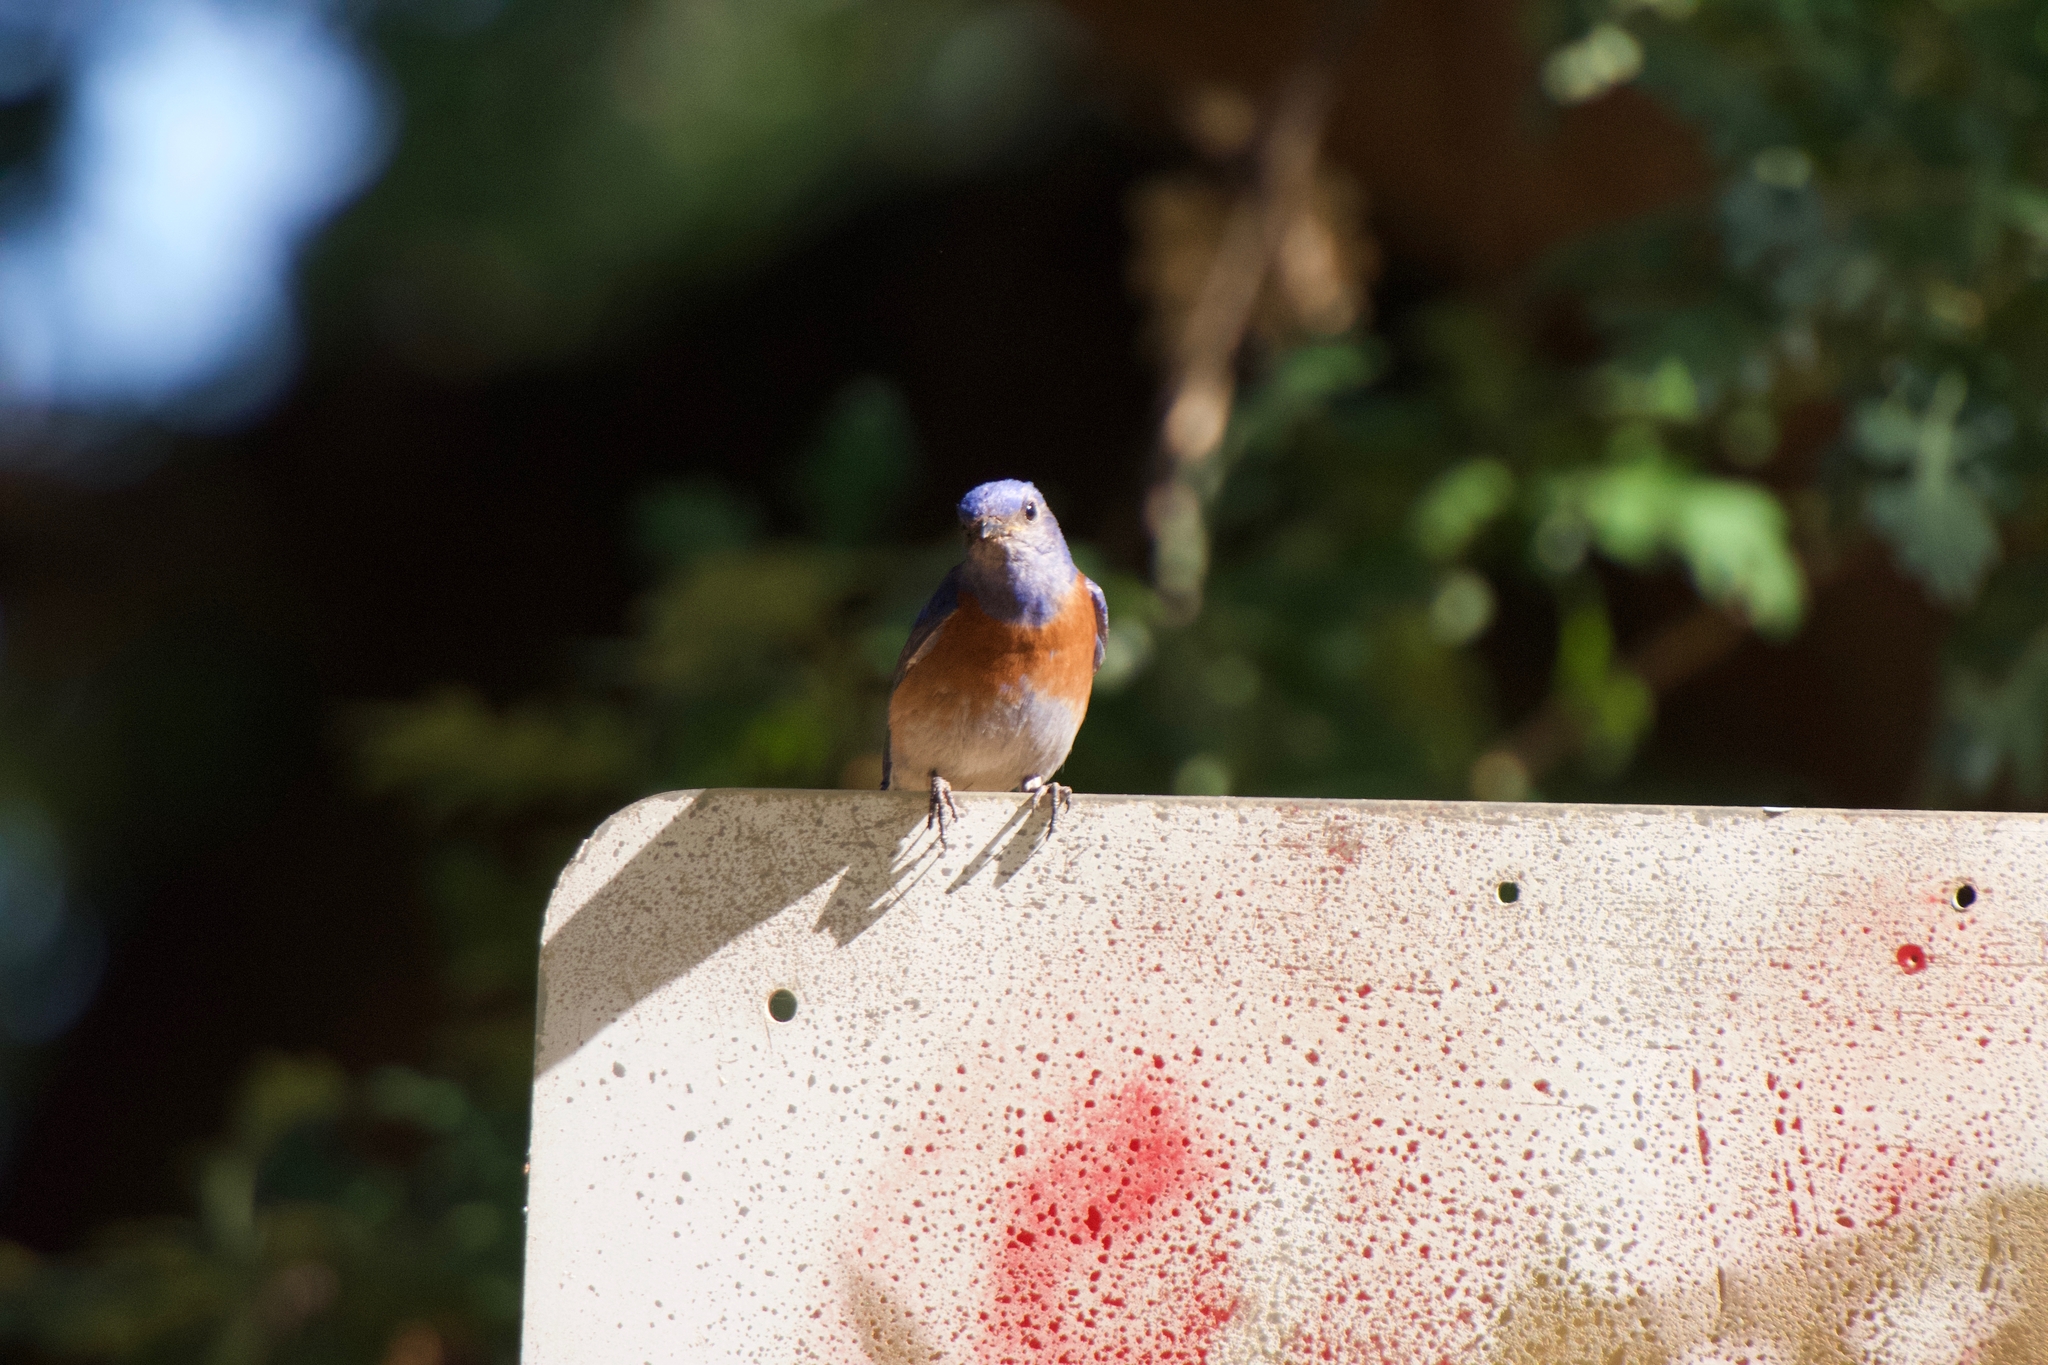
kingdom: Animalia
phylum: Chordata
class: Aves
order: Passeriformes
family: Turdidae
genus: Sialia
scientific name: Sialia mexicana
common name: Western bluebird
